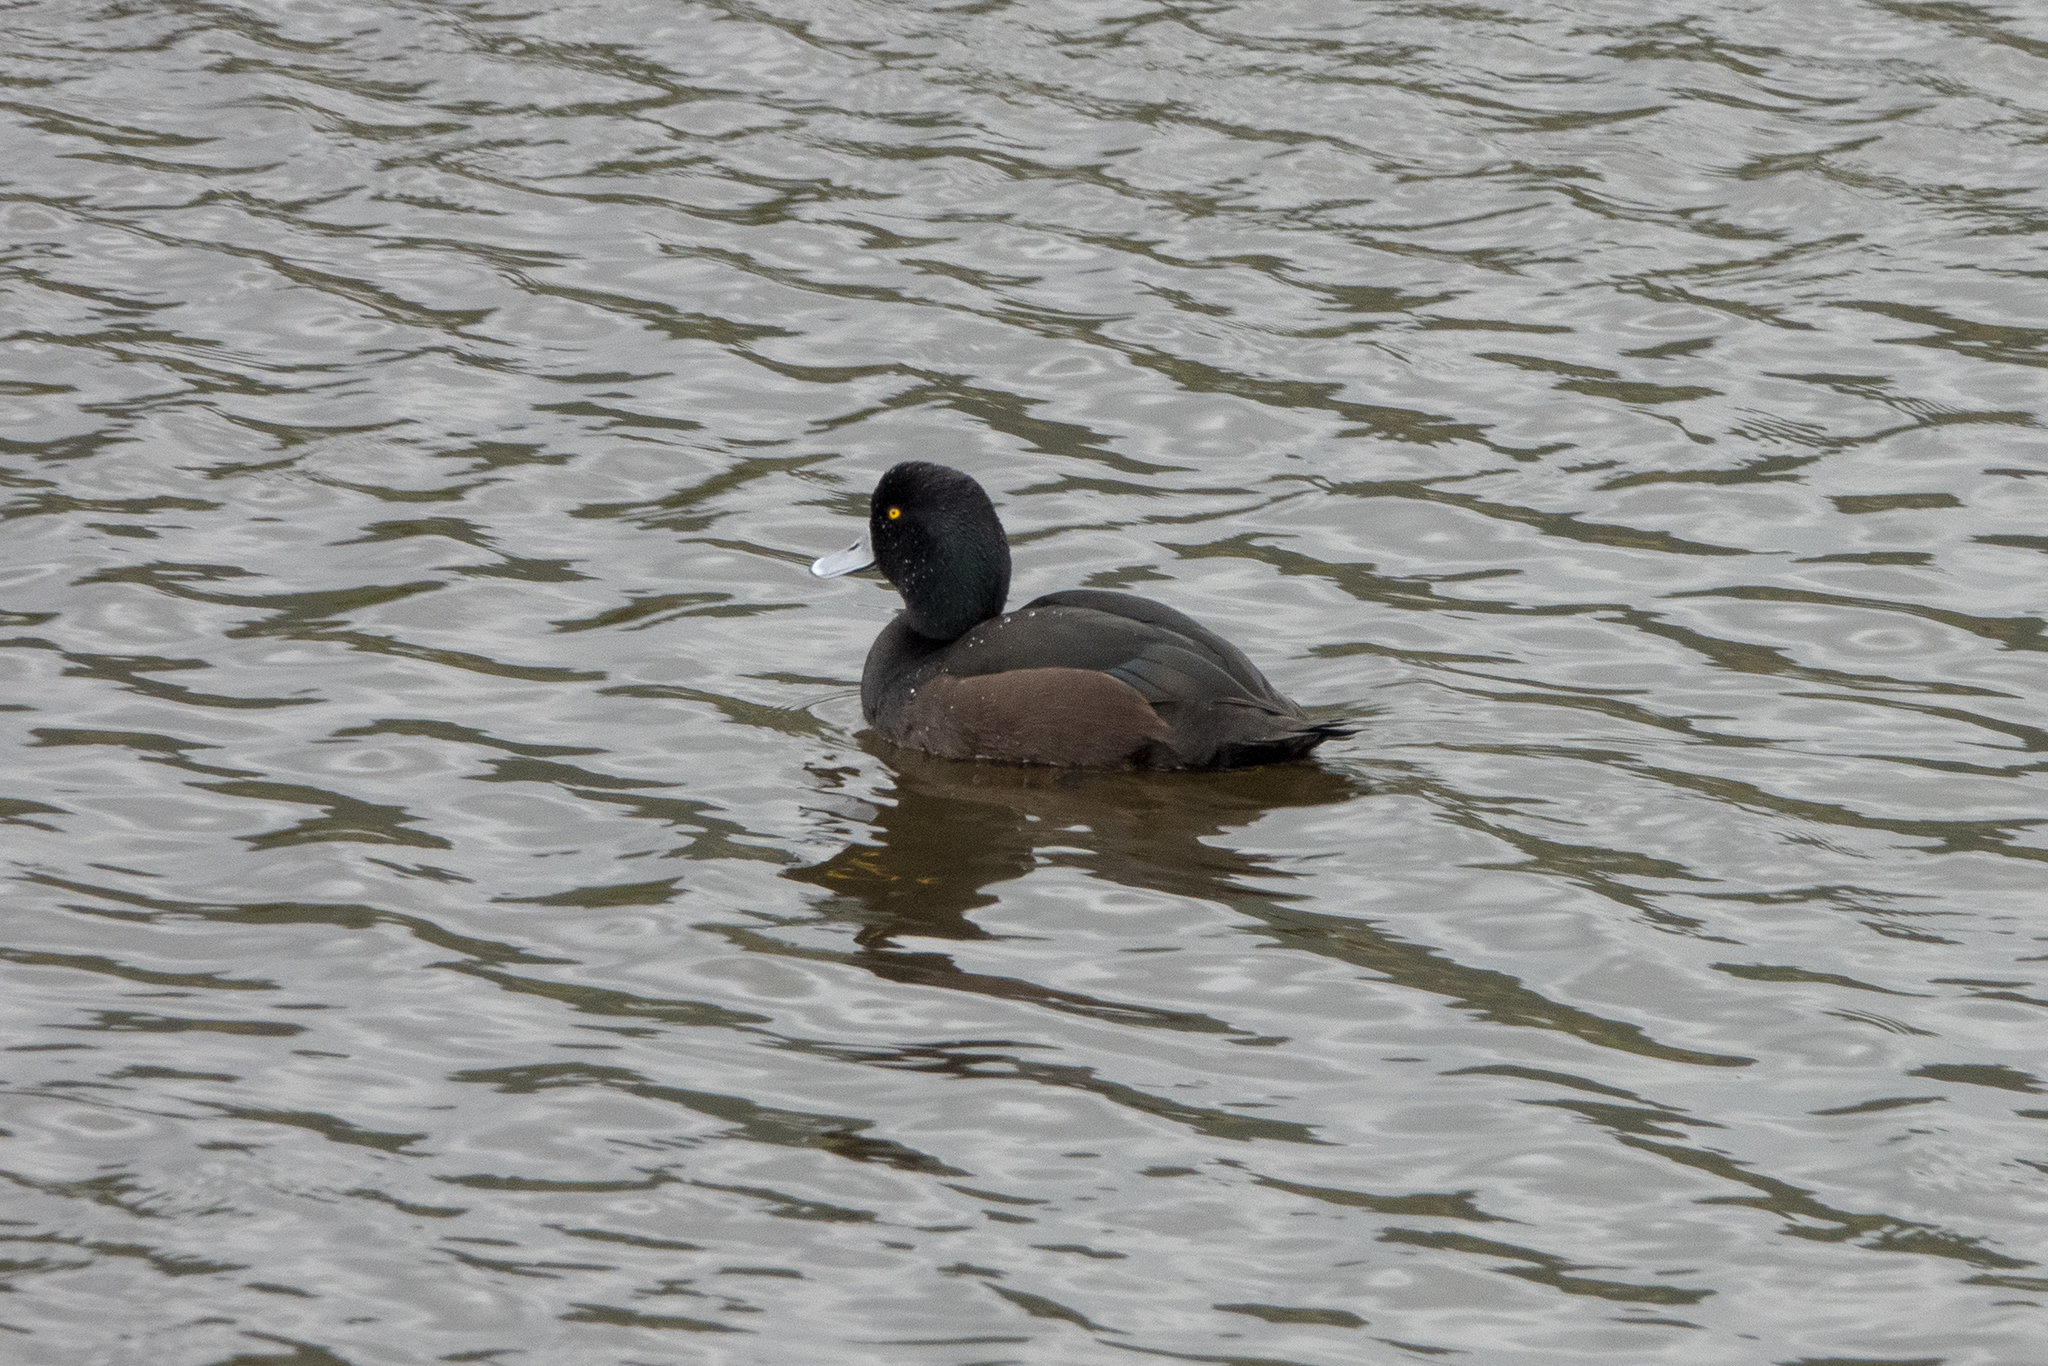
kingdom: Animalia
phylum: Chordata
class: Aves
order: Anseriformes
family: Anatidae
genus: Aythya
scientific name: Aythya novaeseelandiae
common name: New zealand scaup
